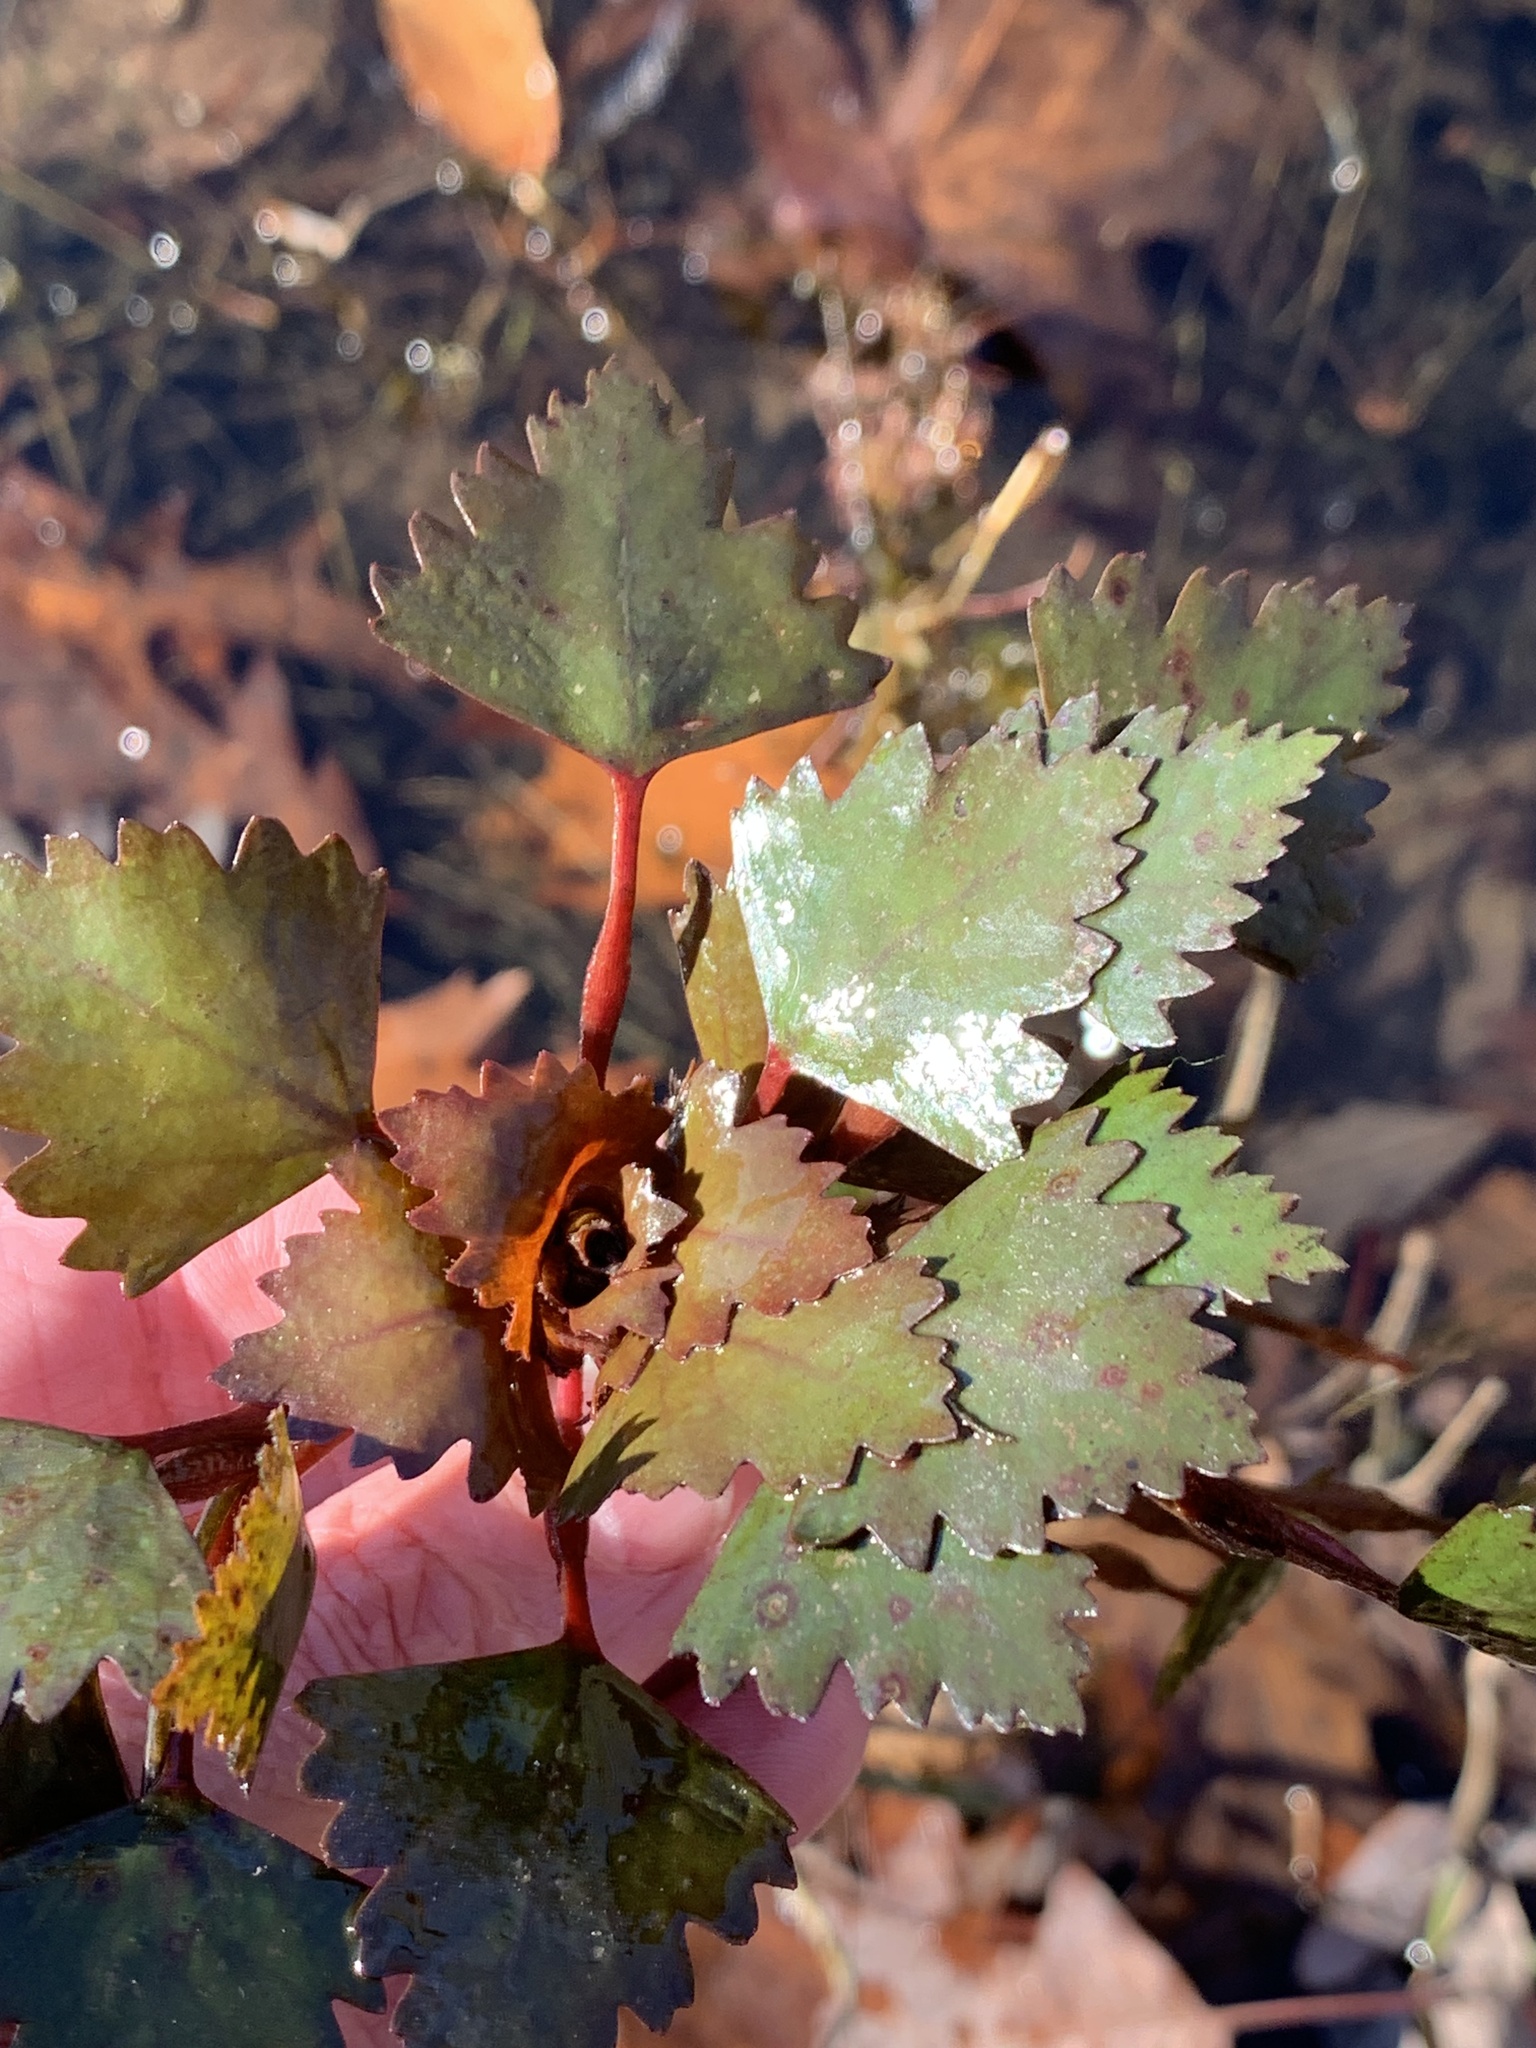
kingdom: Plantae
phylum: Tracheophyta
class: Magnoliopsida
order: Myrtales
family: Lythraceae
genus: Trapa
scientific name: Trapa natans
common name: Water chestnut
